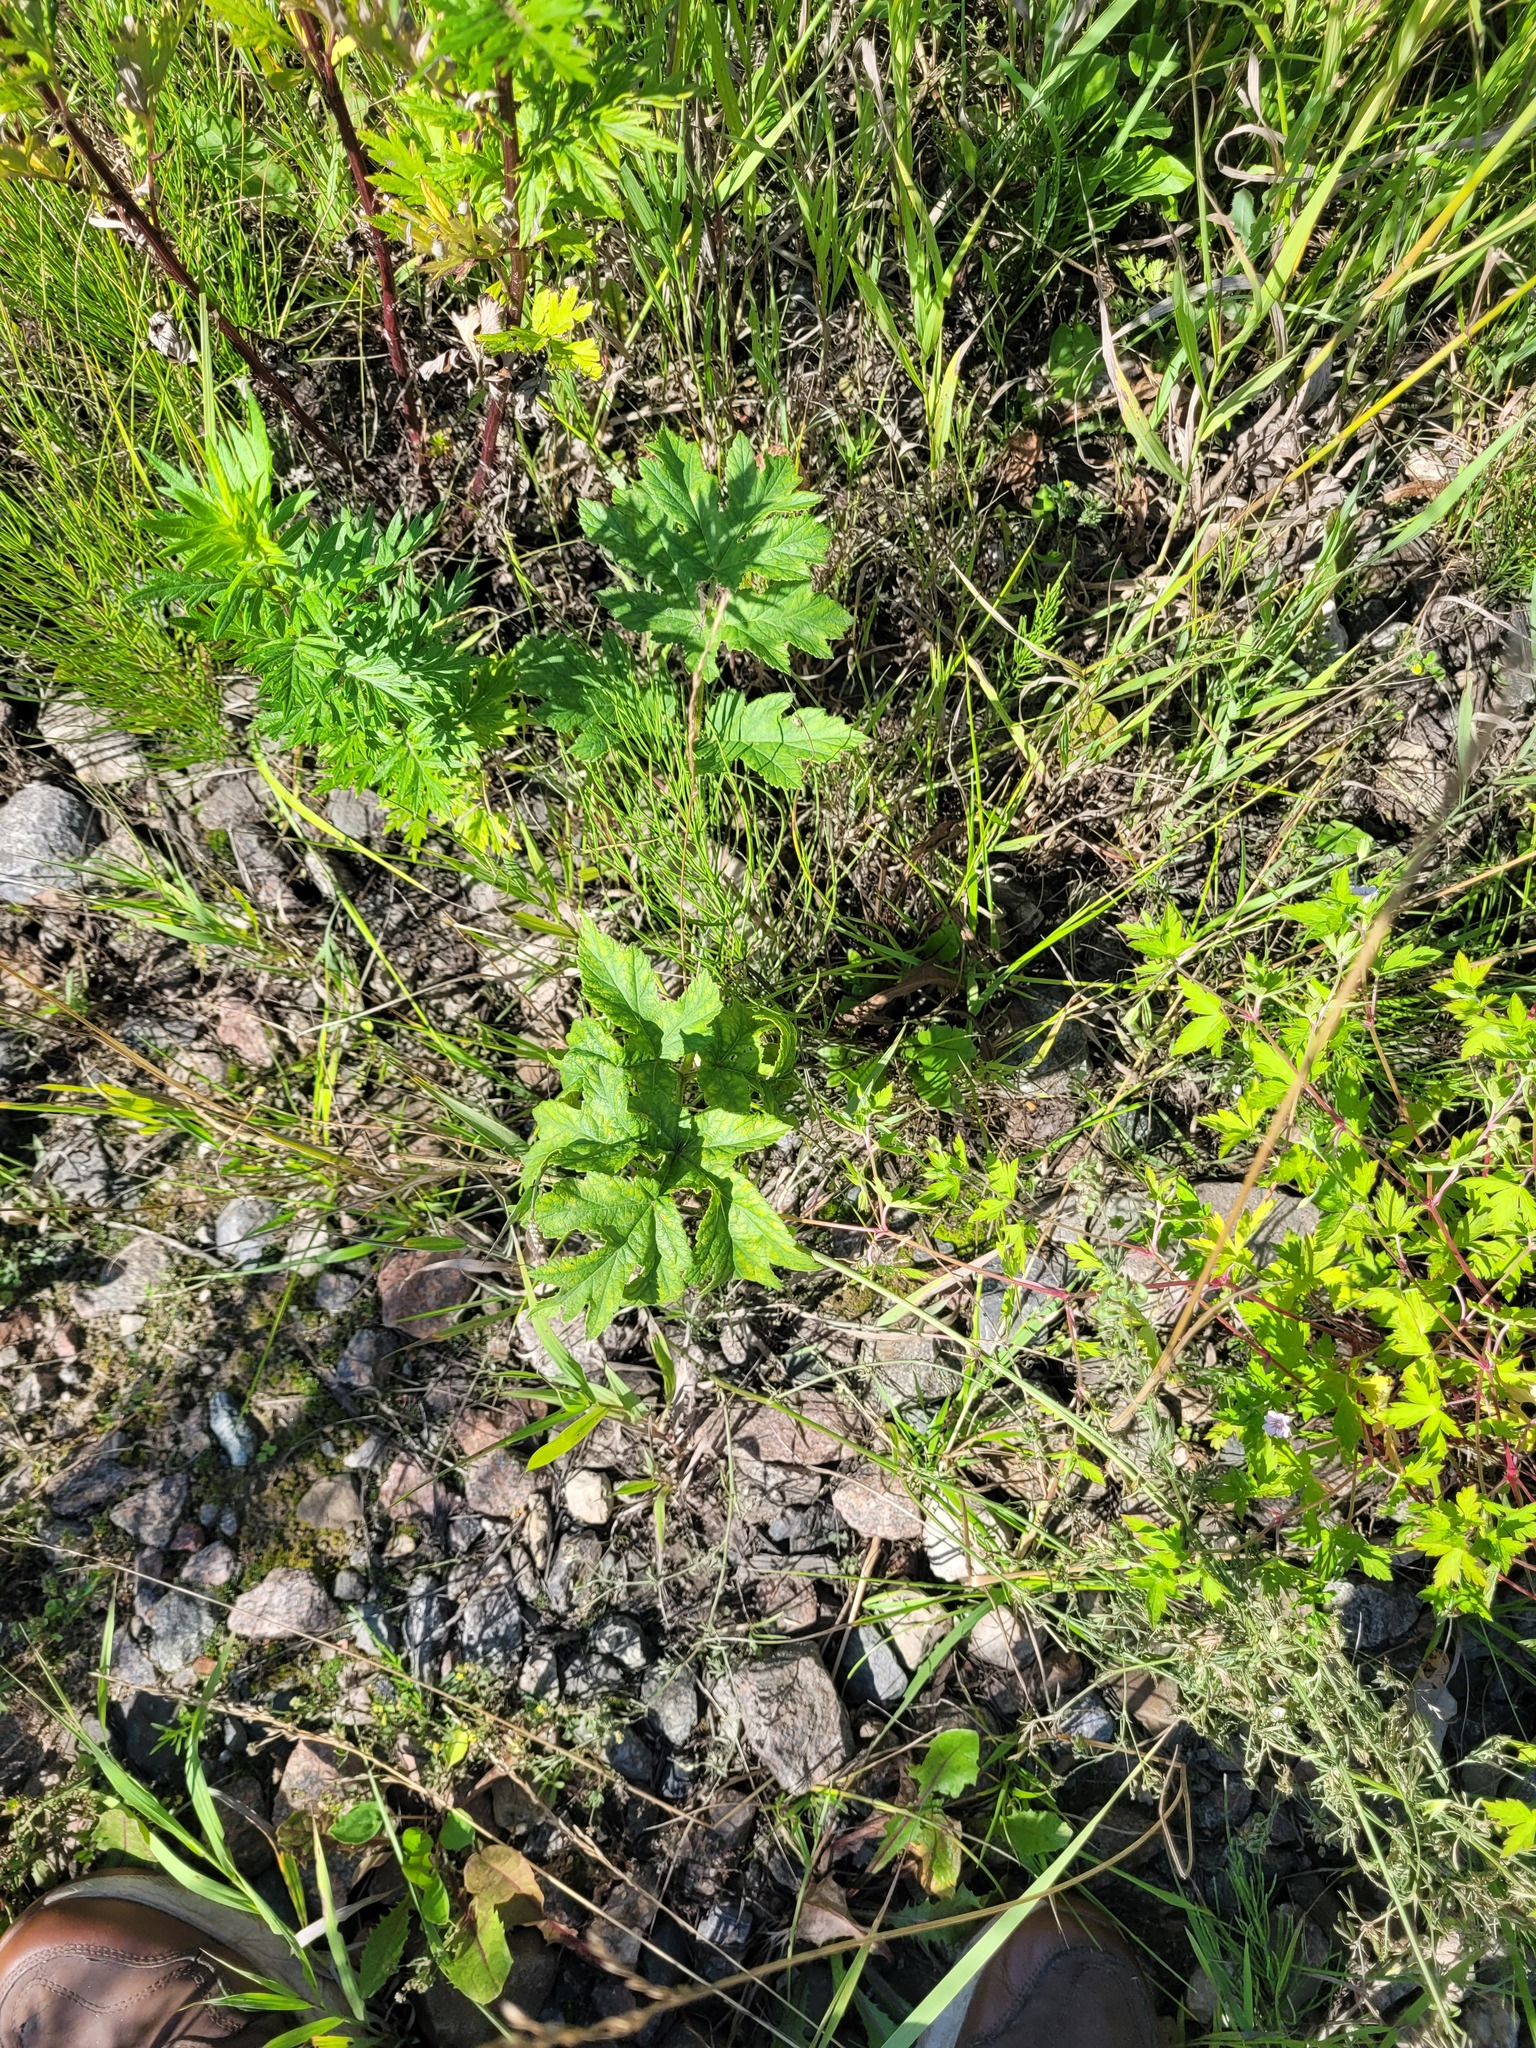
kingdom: Plantae
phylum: Tracheophyta
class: Magnoliopsida
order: Apiales
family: Apiaceae
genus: Heracleum
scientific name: Heracleum sphondylium
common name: Hogweed
